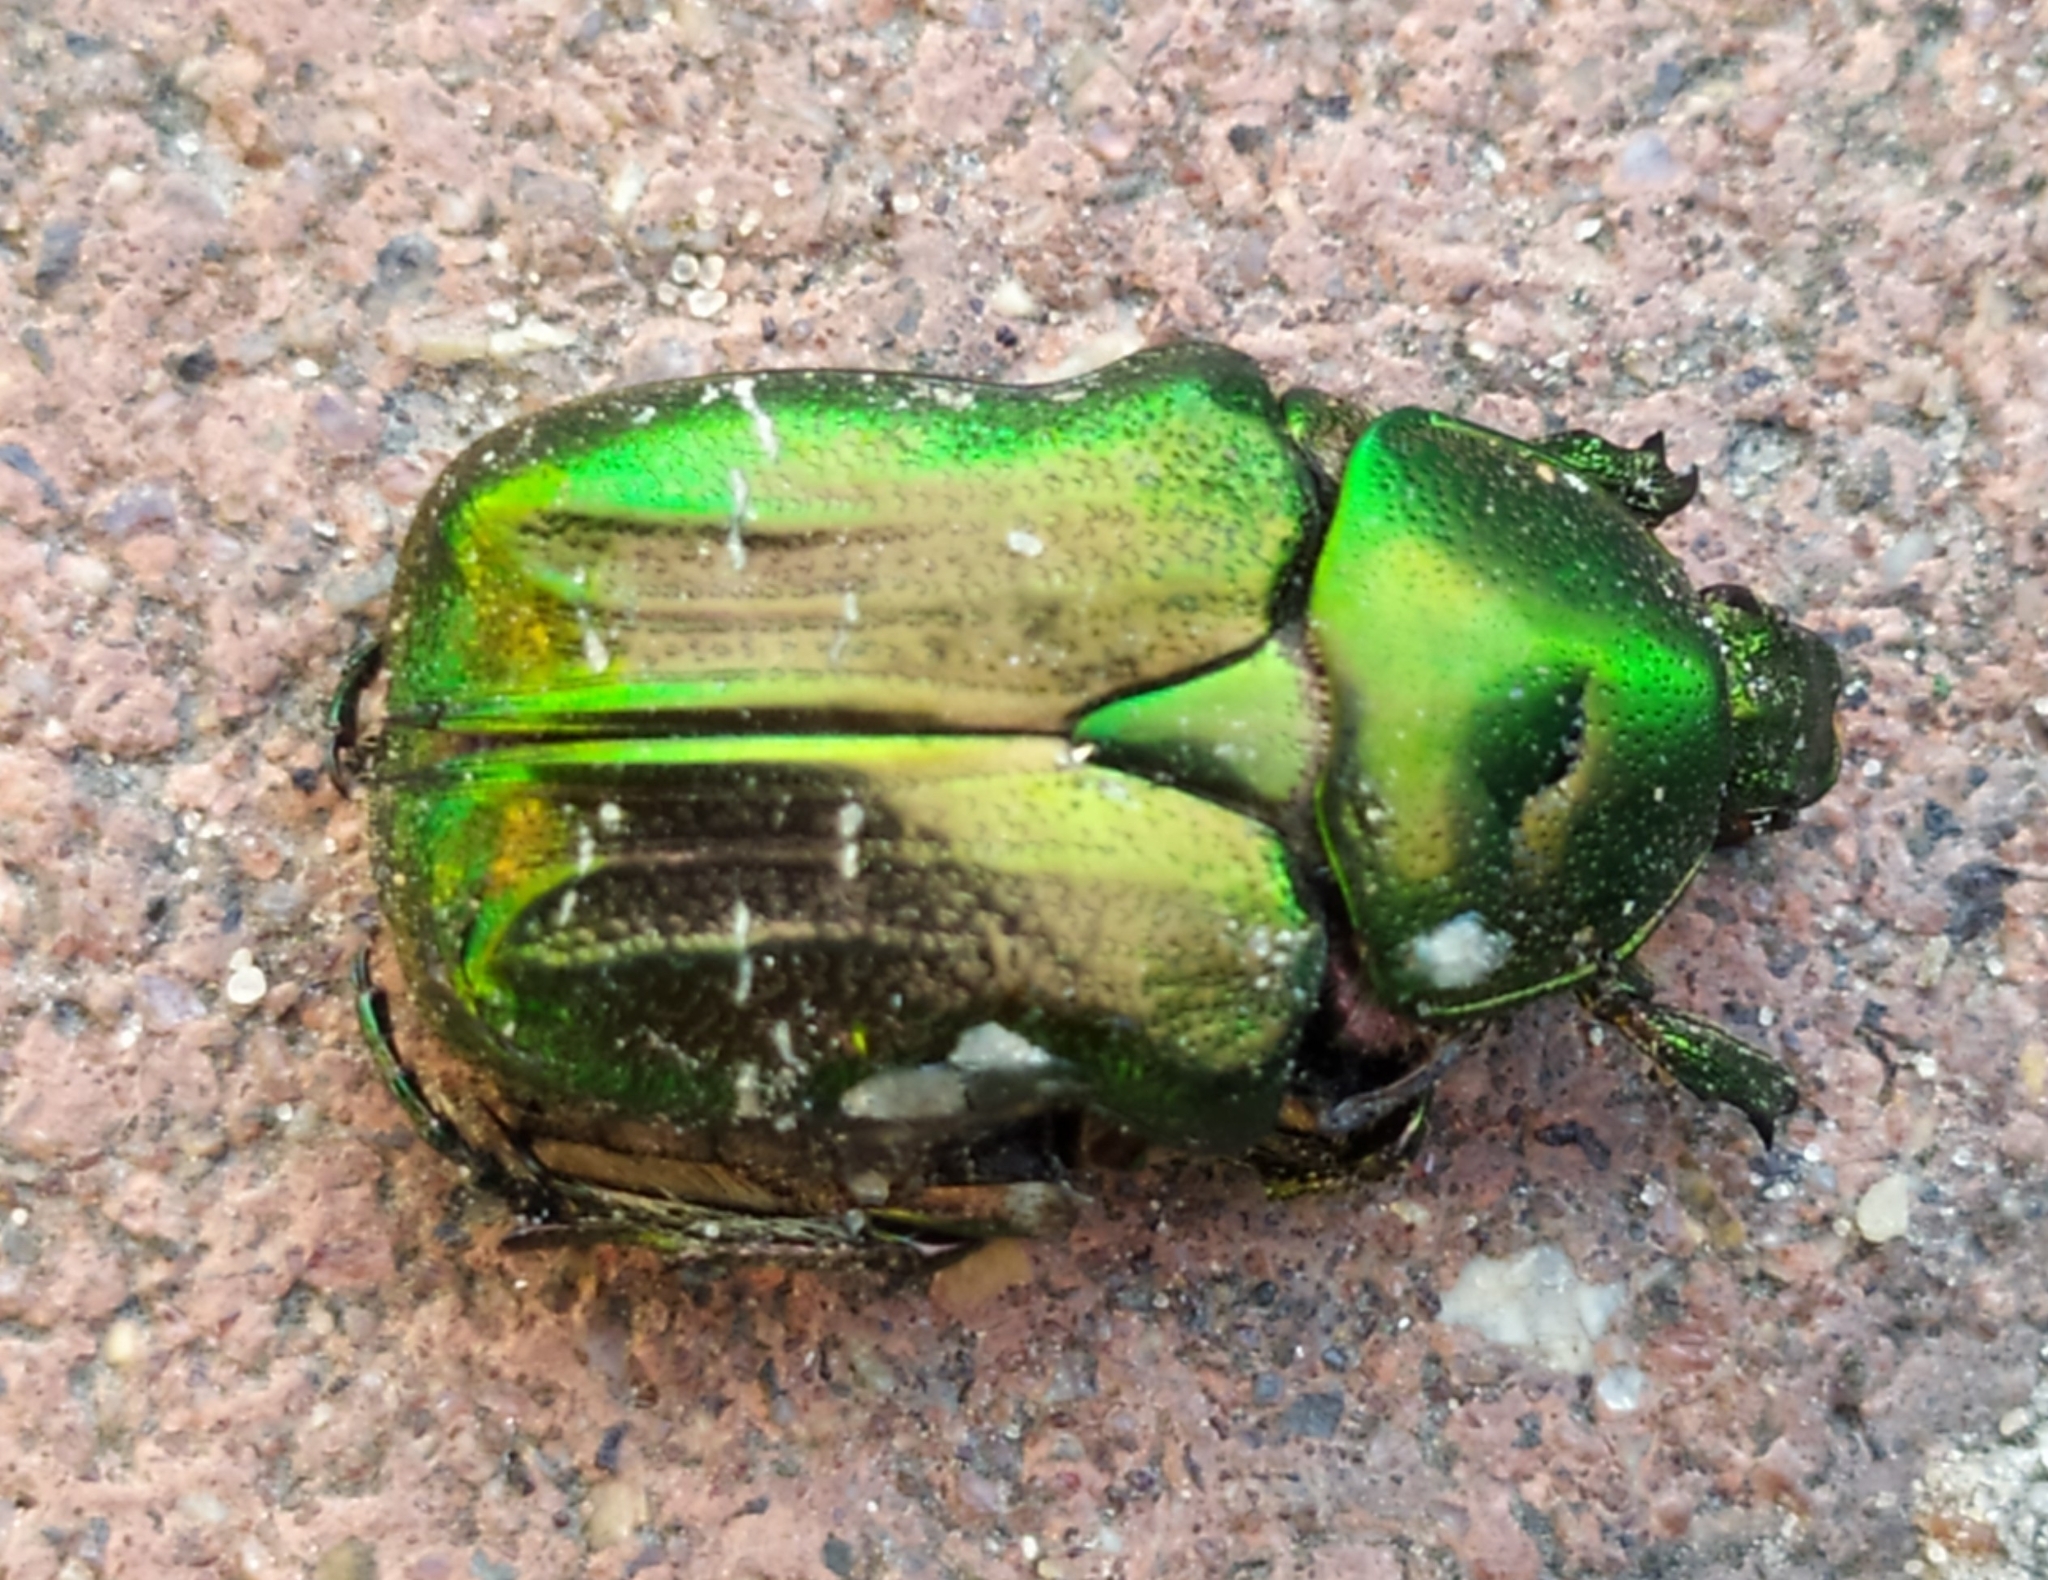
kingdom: Animalia
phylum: Arthropoda
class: Insecta
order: Coleoptera
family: Scarabaeidae
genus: Cetonia
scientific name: Cetonia aurata
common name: Rose chafer
